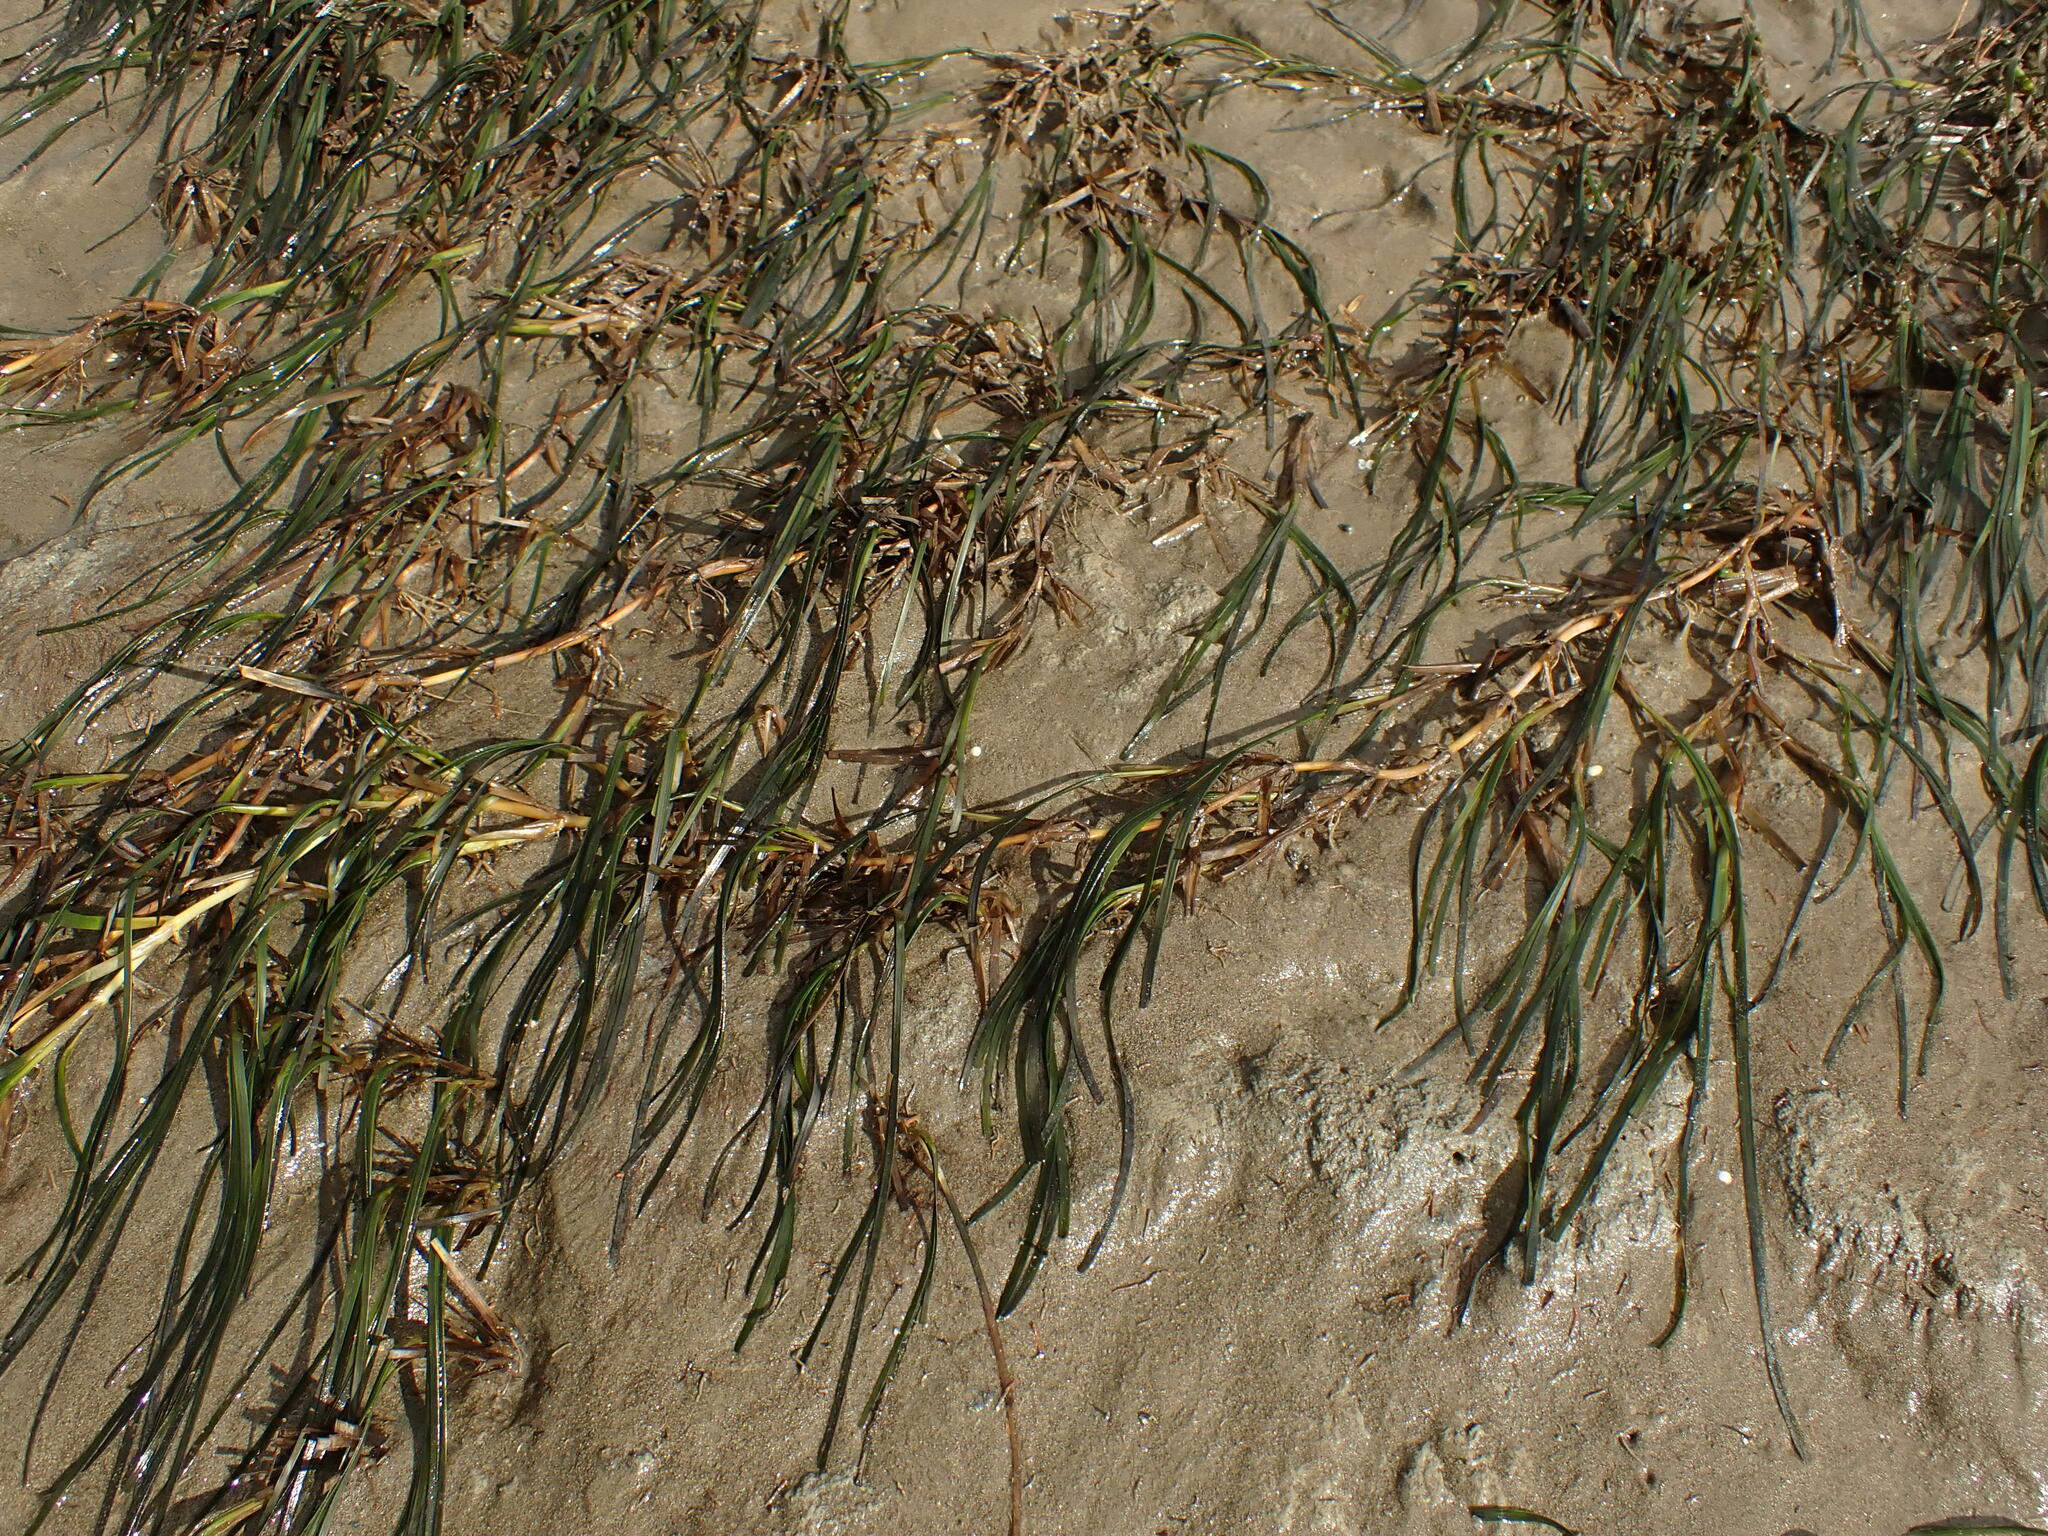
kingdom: Plantae
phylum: Tracheophyta
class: Liliopsida
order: Alismatales
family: Zosteraceae
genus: Zostera
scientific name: Zostera novazelandica
